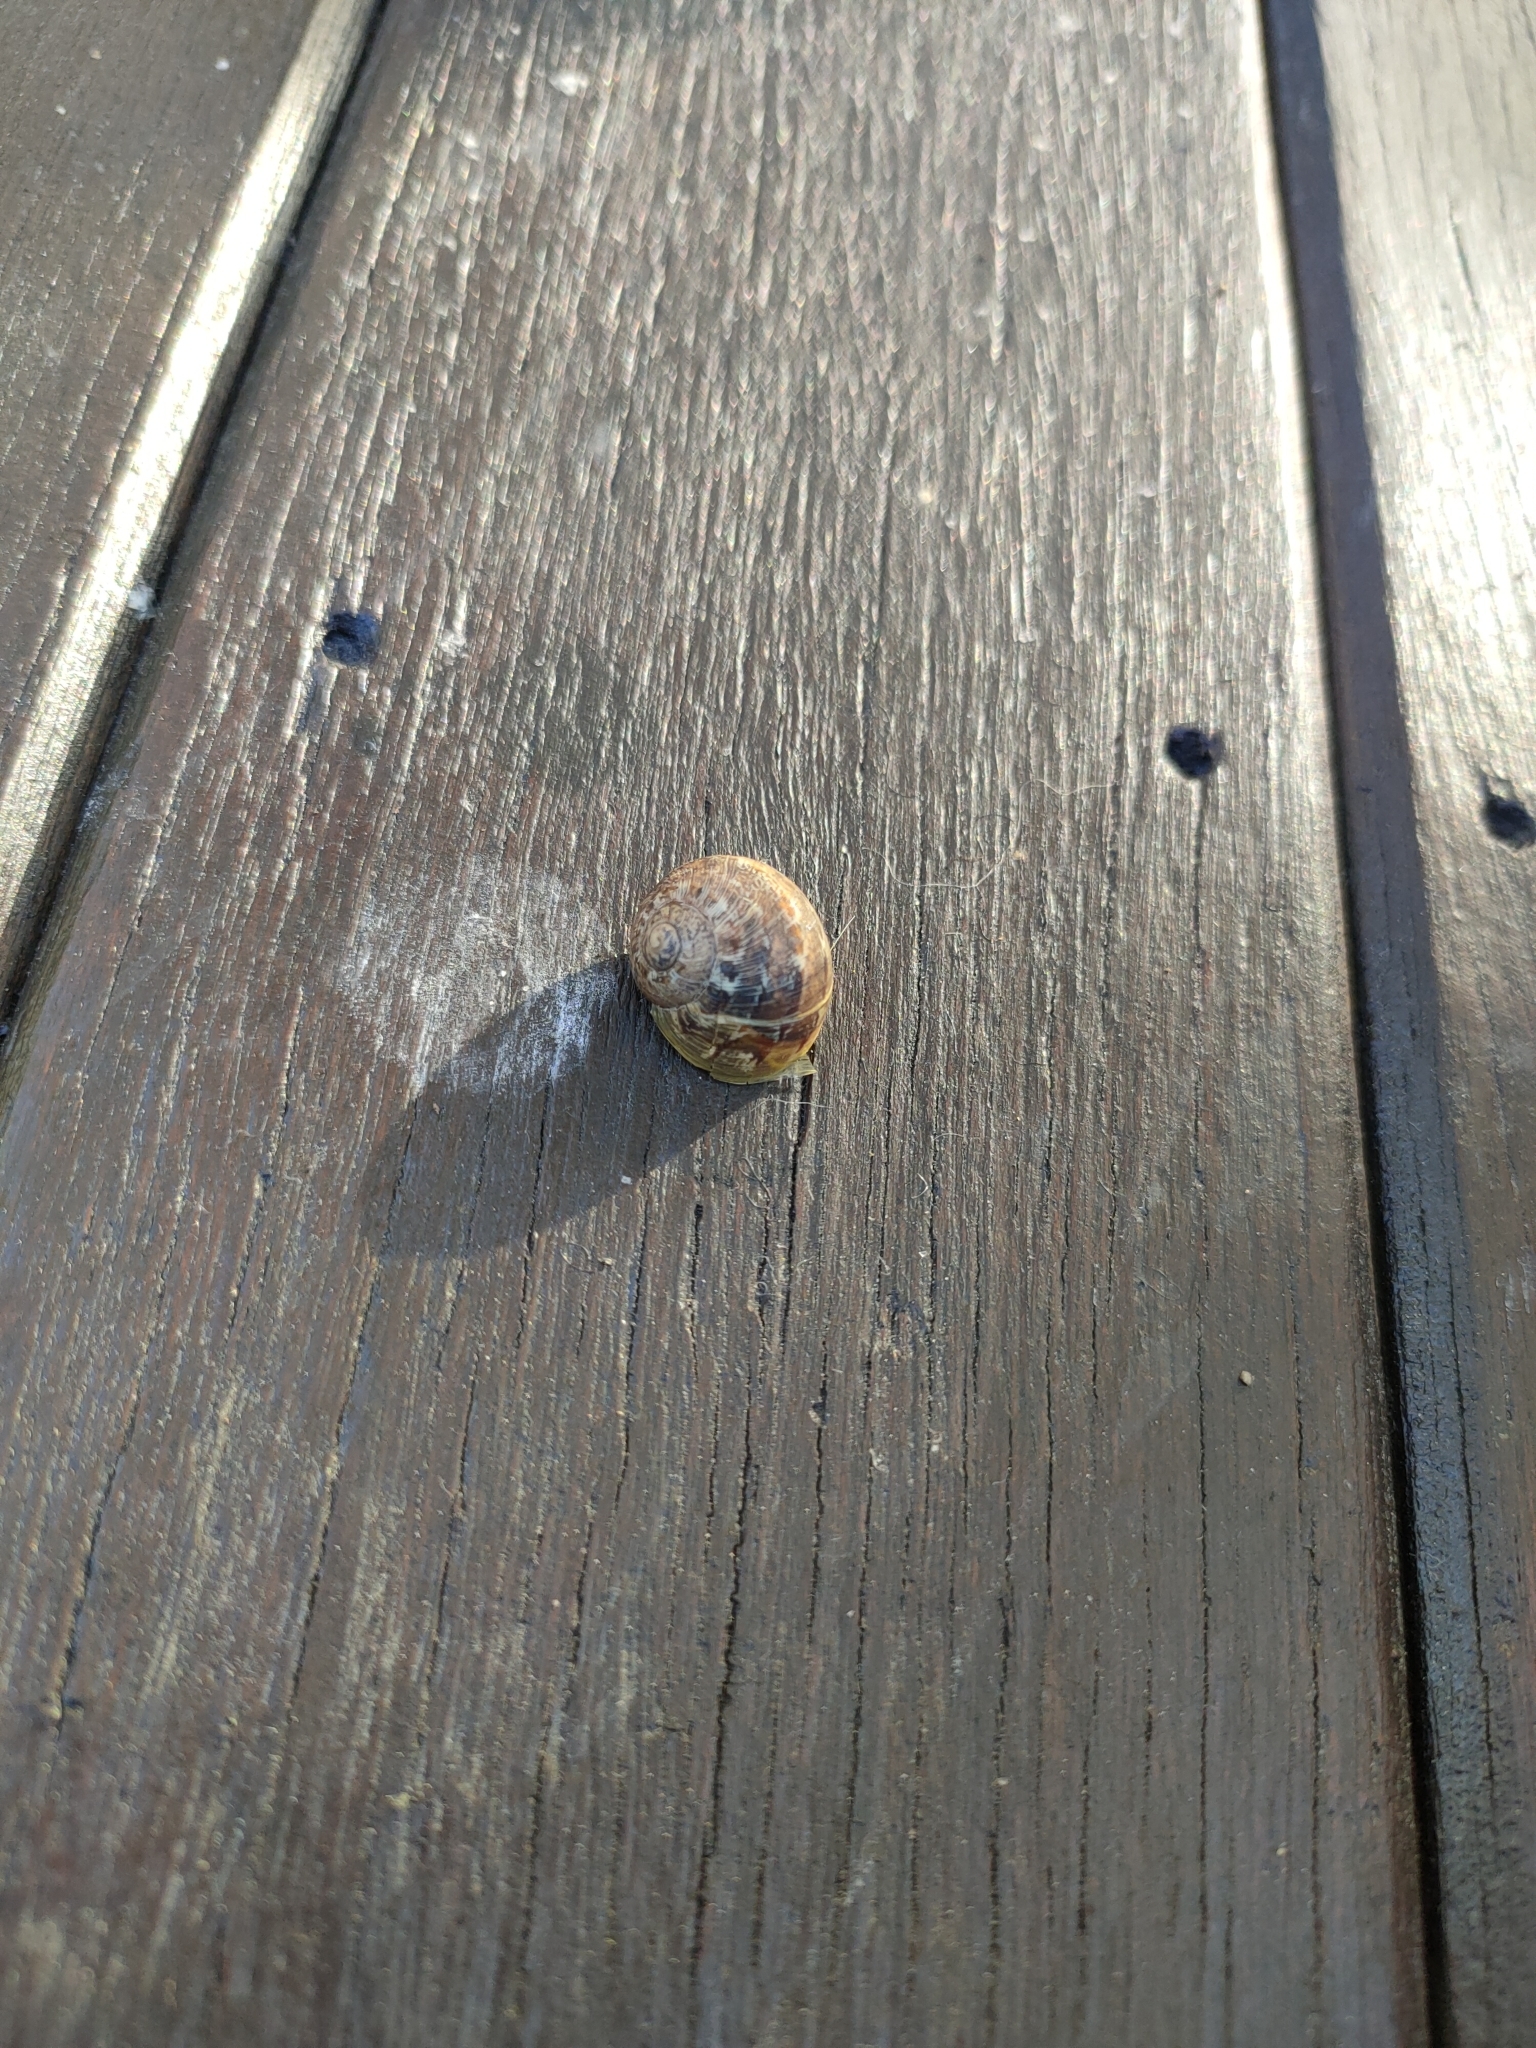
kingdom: Animalia
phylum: Mollusca
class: Gastropoda
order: Stylommatophora
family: Helicidae
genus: Cornu
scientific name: Cornu aspersum
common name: Brown garden snail
